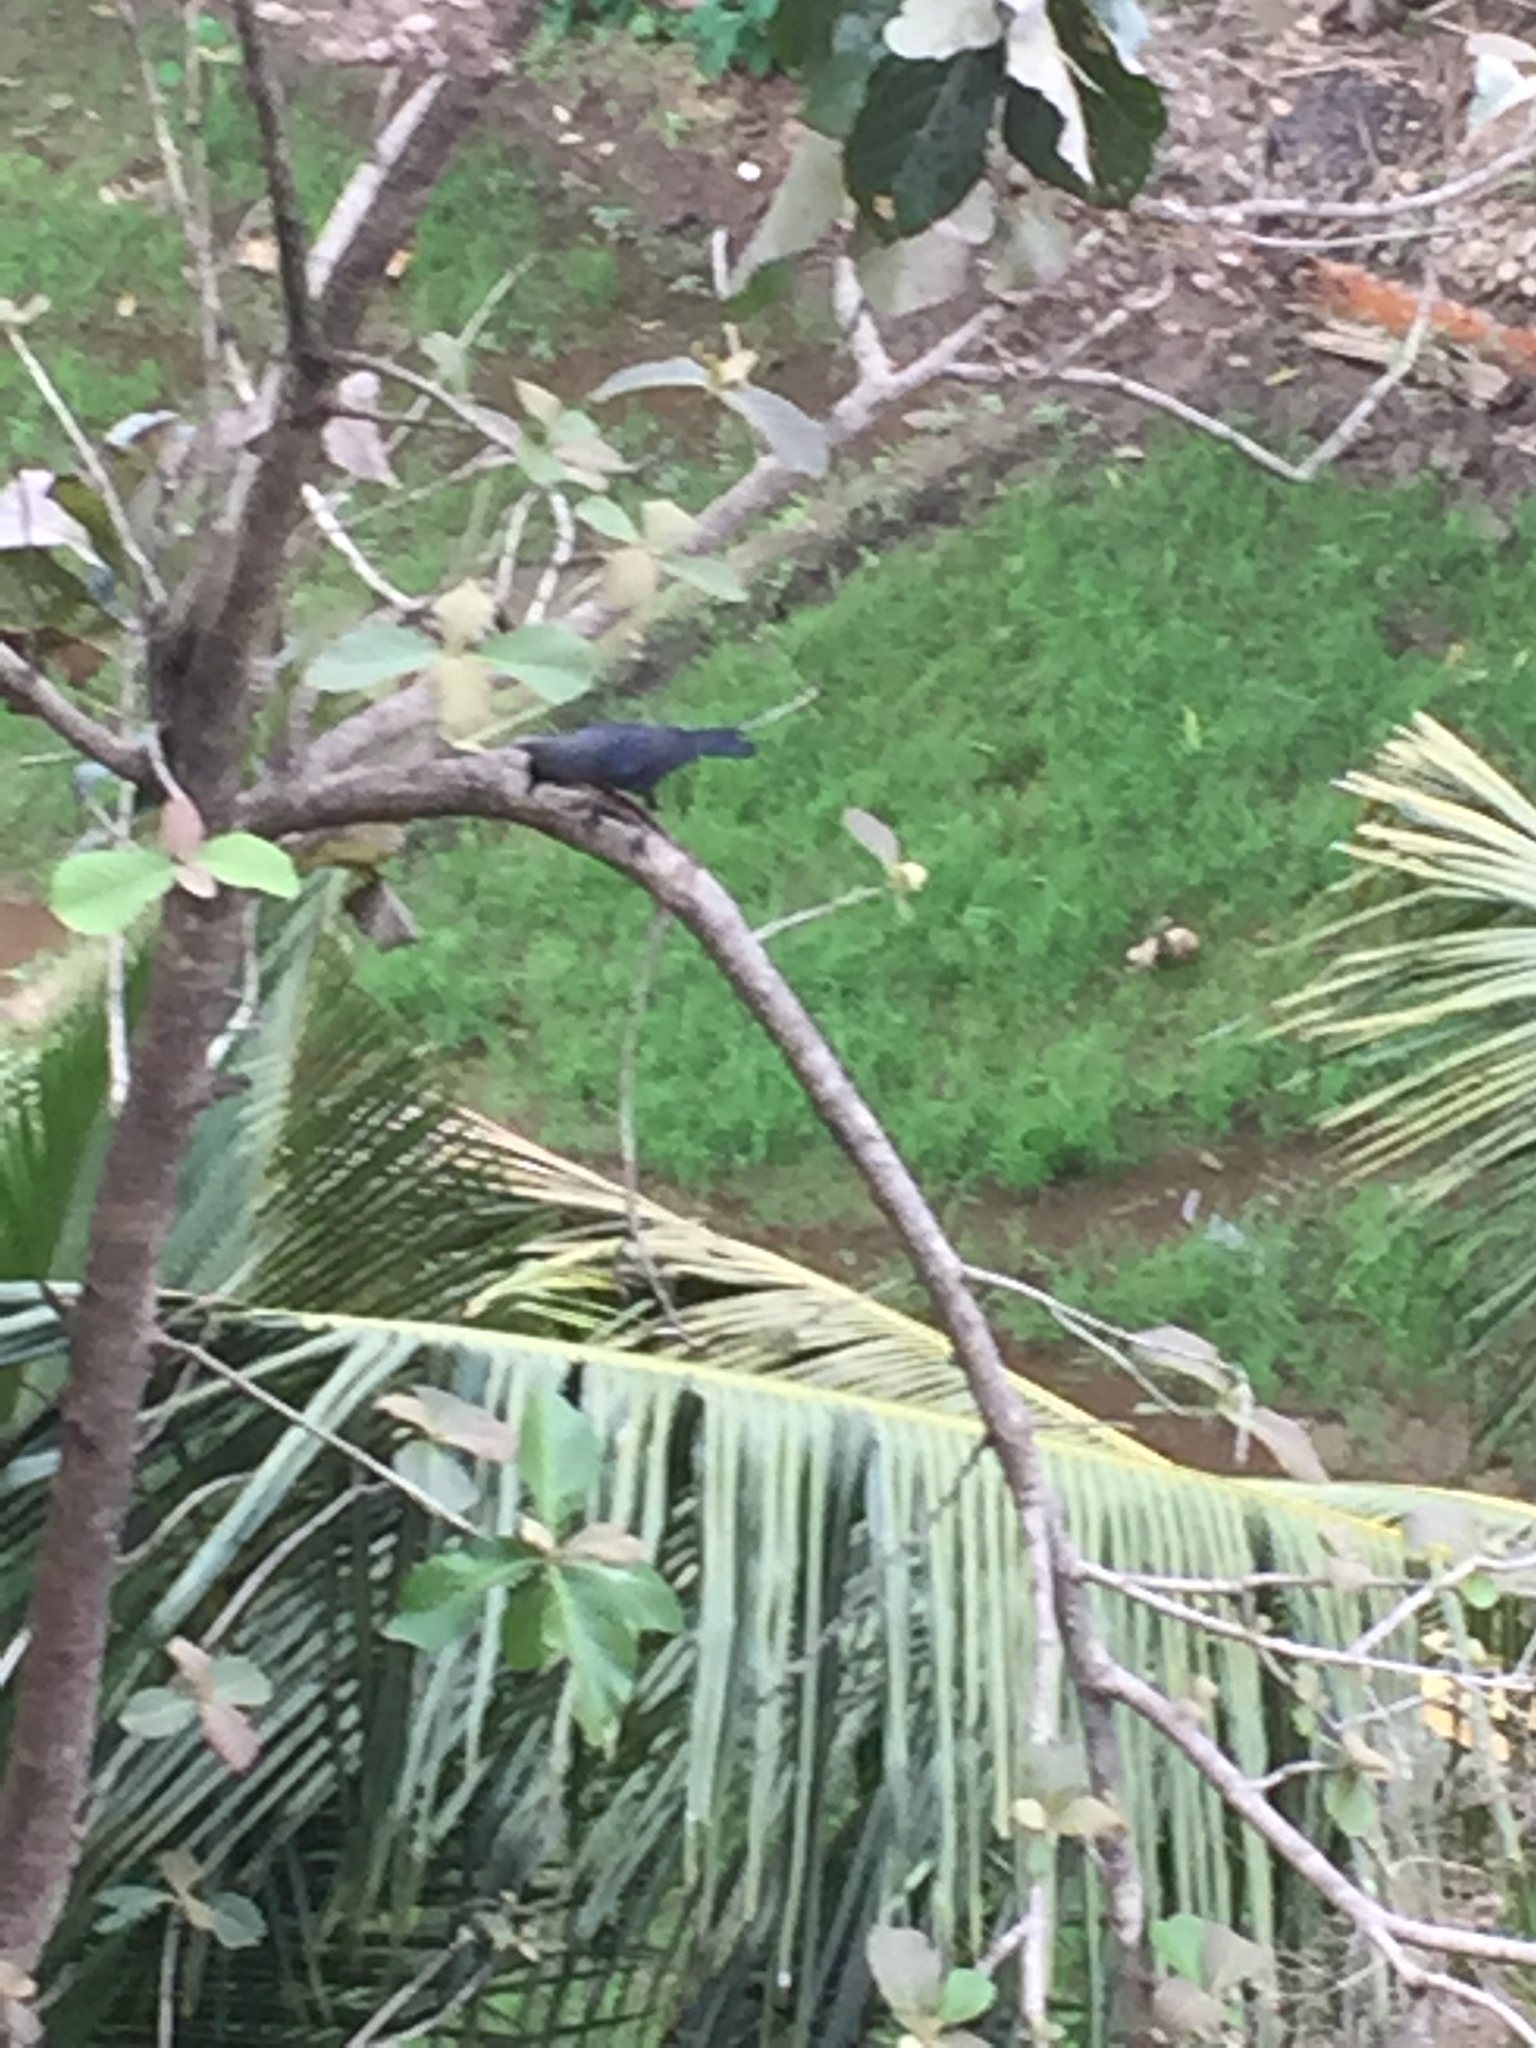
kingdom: Animalia
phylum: Chordata
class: Aves
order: Passeriformes
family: Corvidae
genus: Corvus
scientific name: Corvus splendens
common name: House crow
